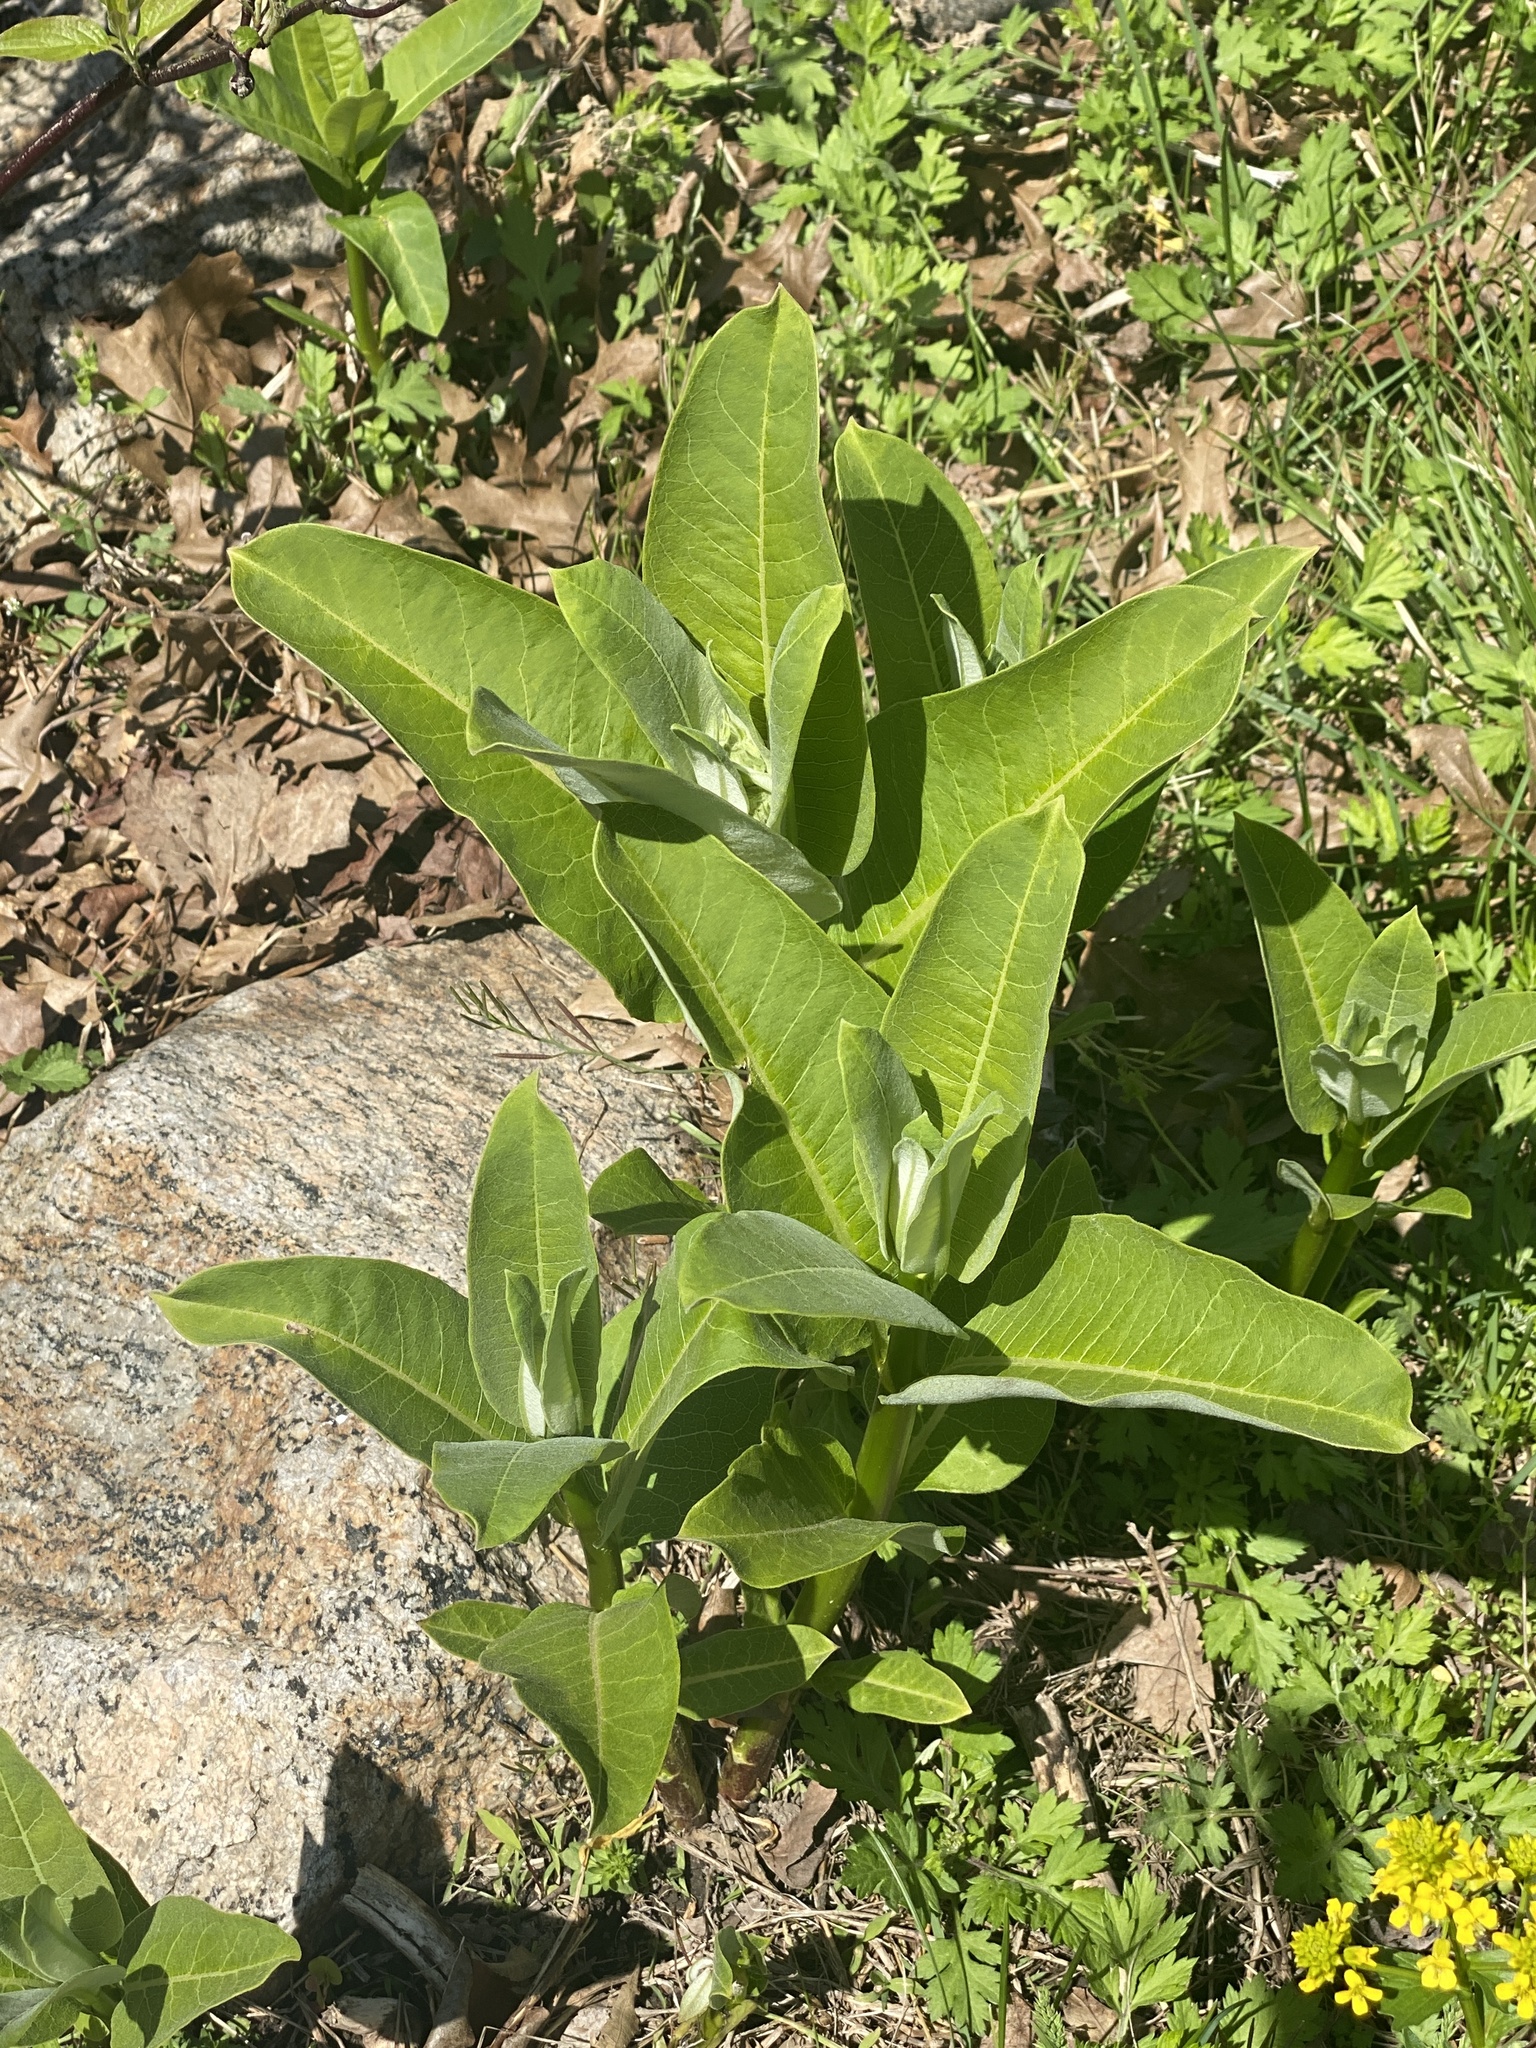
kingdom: Plantae
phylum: Tracheophyta
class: Magnoliopsida
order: Gentianales
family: Apocynaceae
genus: Asclepias
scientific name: Asclepias syriaca
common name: Common milkweed
